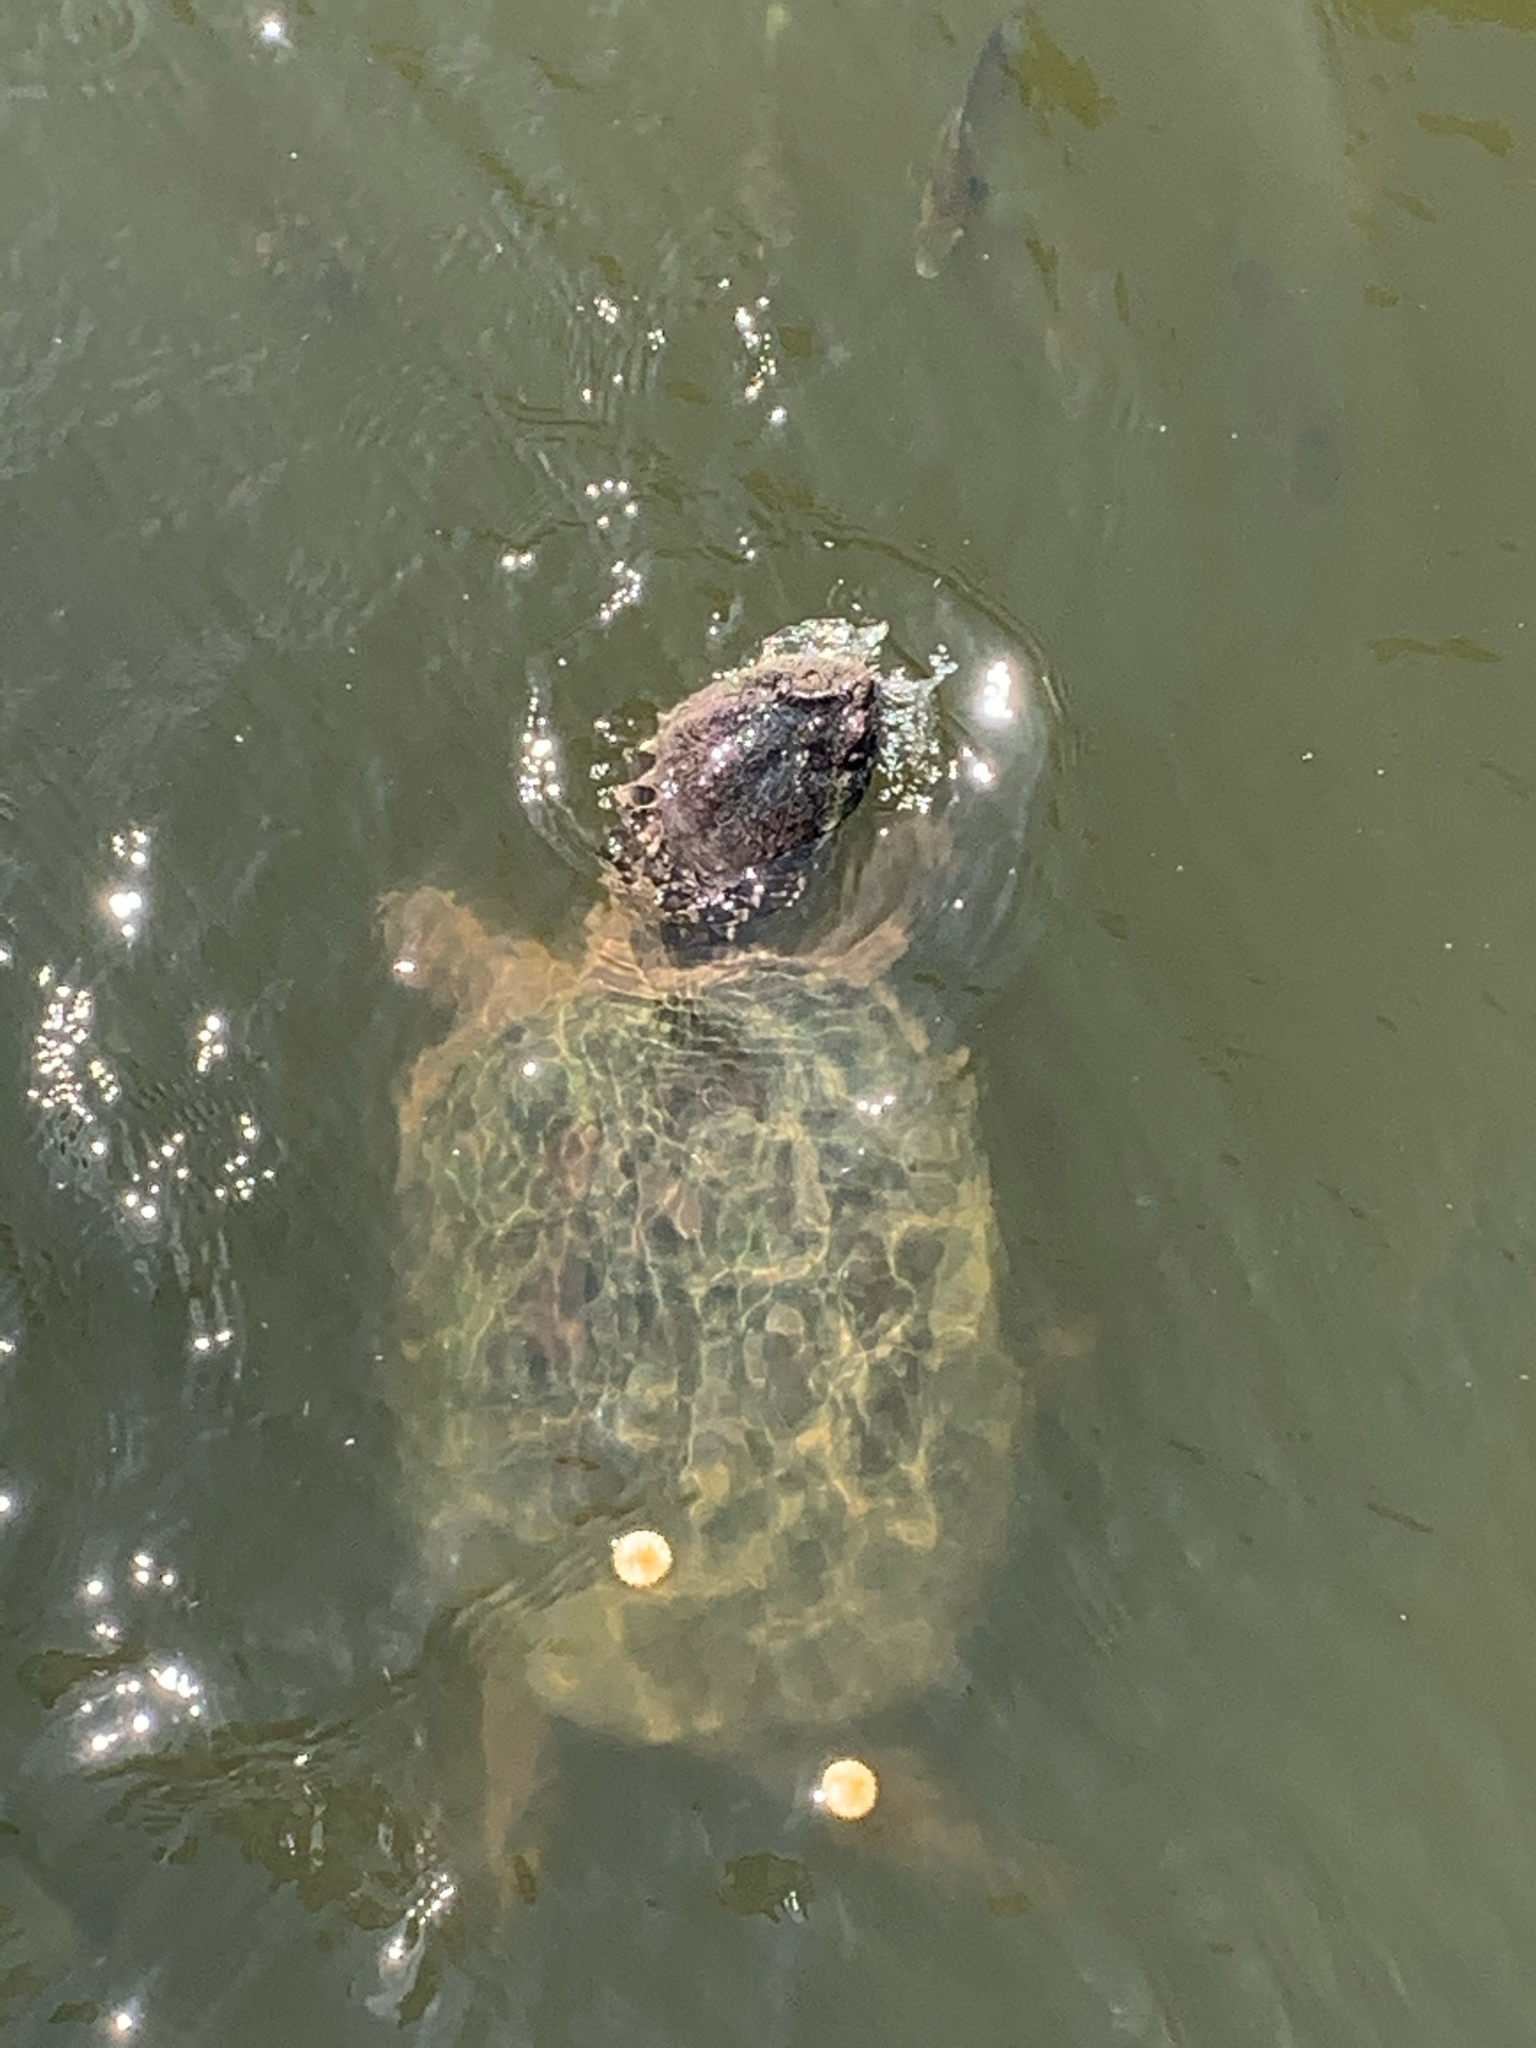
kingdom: Animalia
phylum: Chordata
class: Testudines
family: Chelydridae
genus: Chelydra
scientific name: Chelydra serpentina
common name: Common snapping turtle
